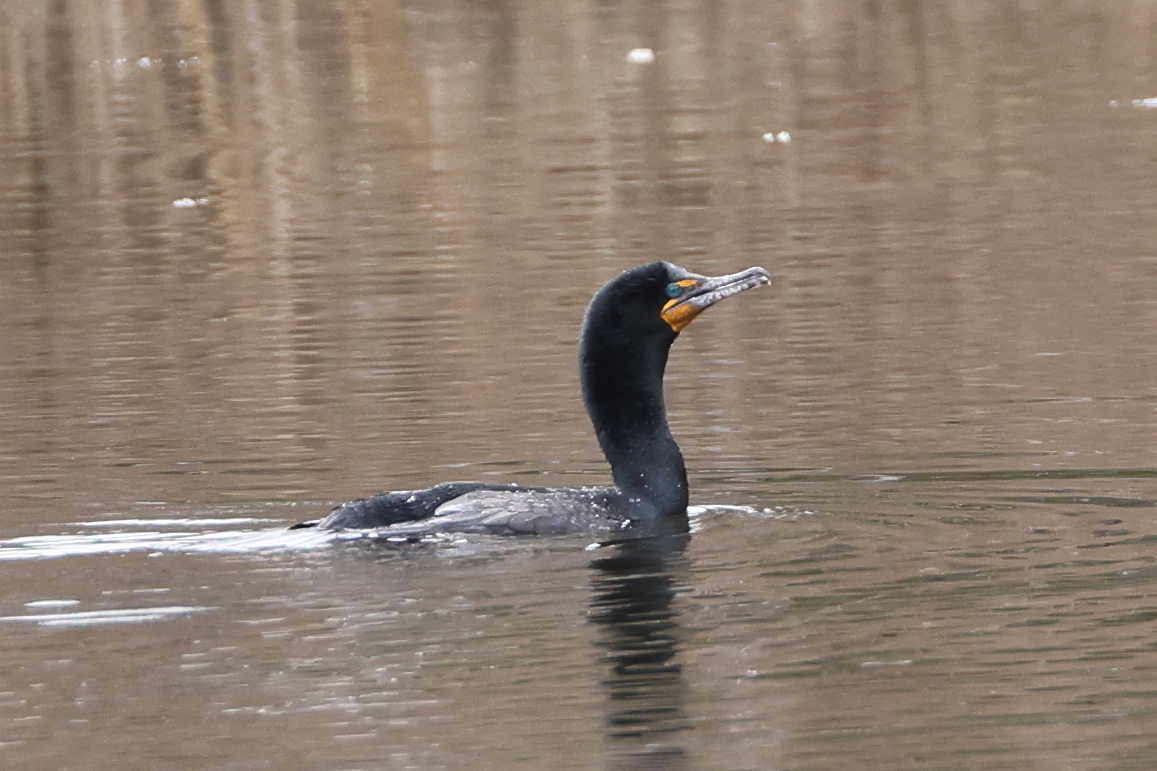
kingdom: Animalia
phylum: Chordata
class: Aves
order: Suliformes
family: Phalacrocoracidae
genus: Phalacrocorax
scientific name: Phalacrocorax auritus
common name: Double-crested cormorant
